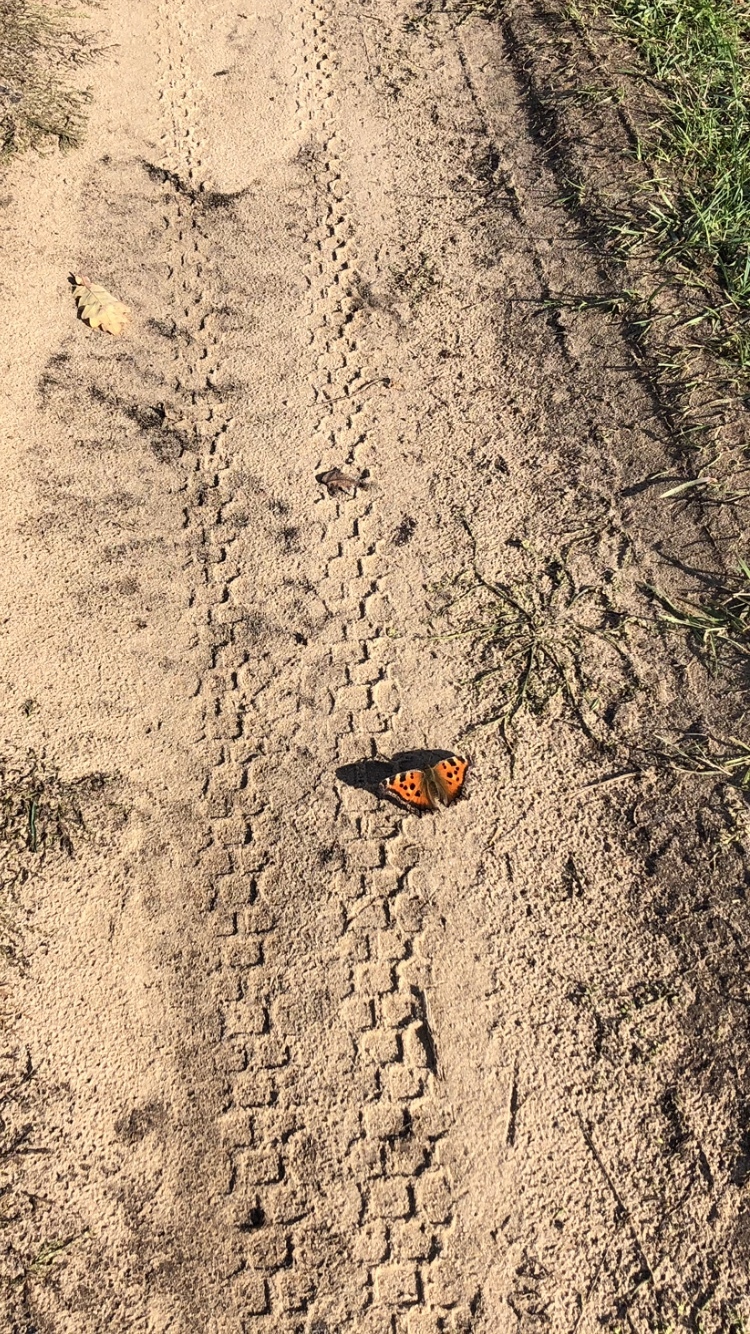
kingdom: Animalia
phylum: Arthropoda
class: Insecta
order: Lepidoptera
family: Nymphalidae
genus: Nymphalis
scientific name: Nymphalis xanthomelas
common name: Scarce tortoiseshell
